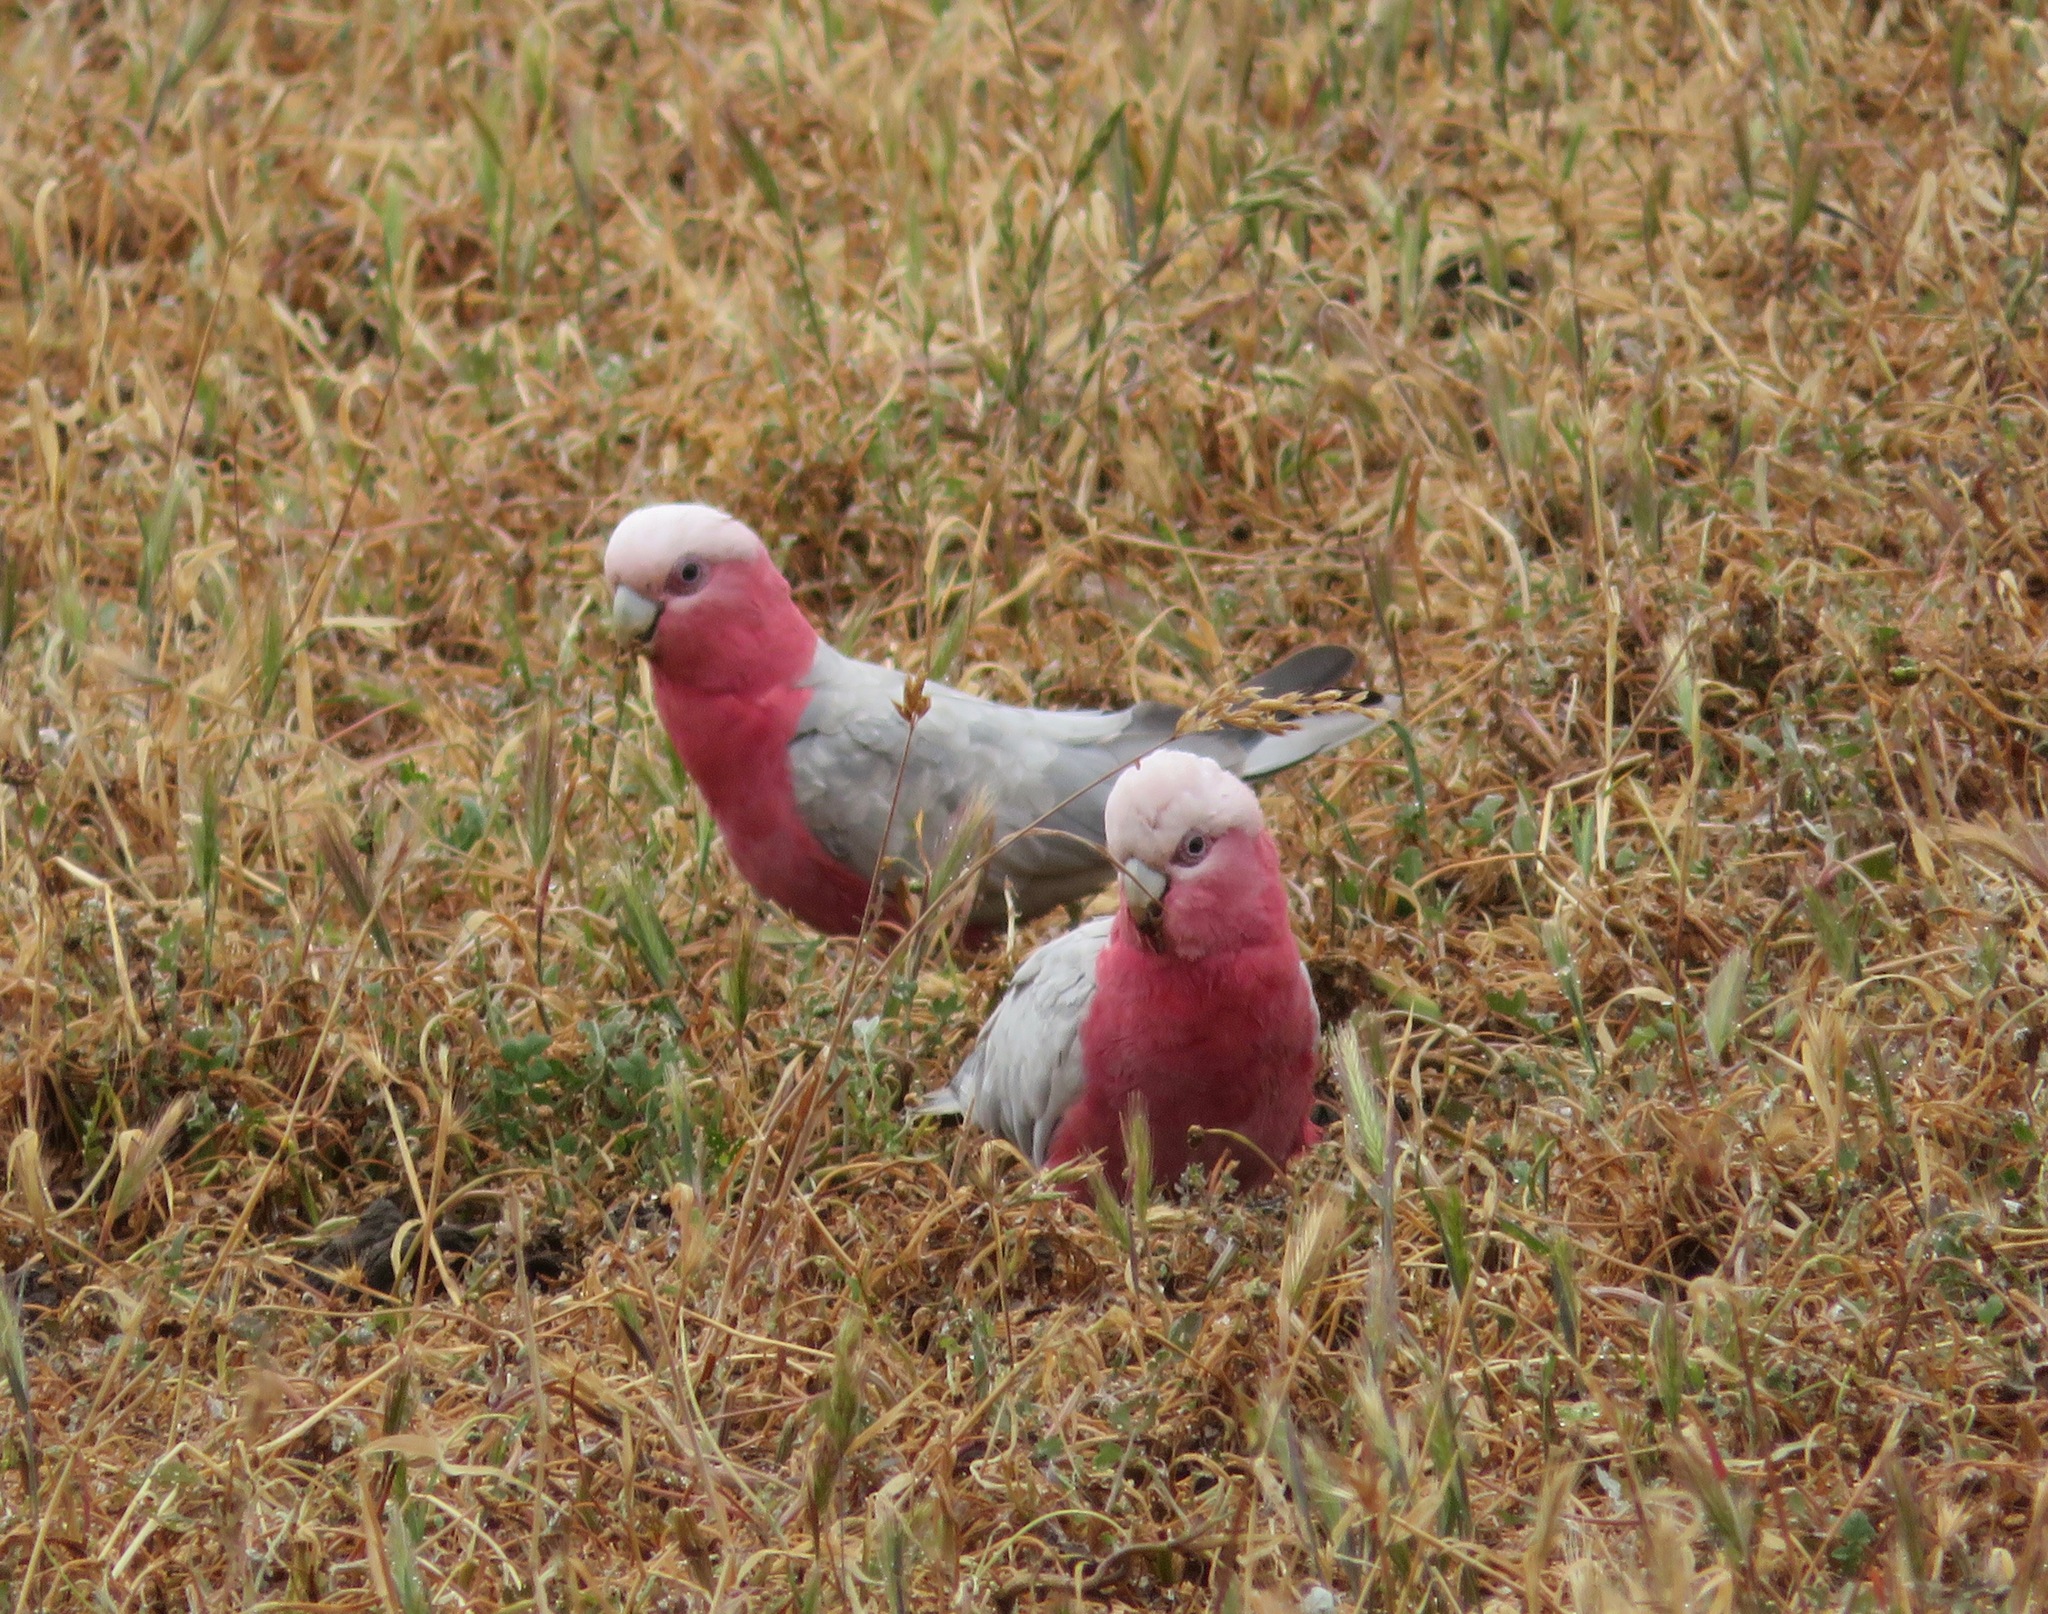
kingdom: Animalia
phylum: Chordata
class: Aves
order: Psittaciformes
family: Psittacidae
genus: Eolophus
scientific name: Eolophus roseicapilla
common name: Galah
